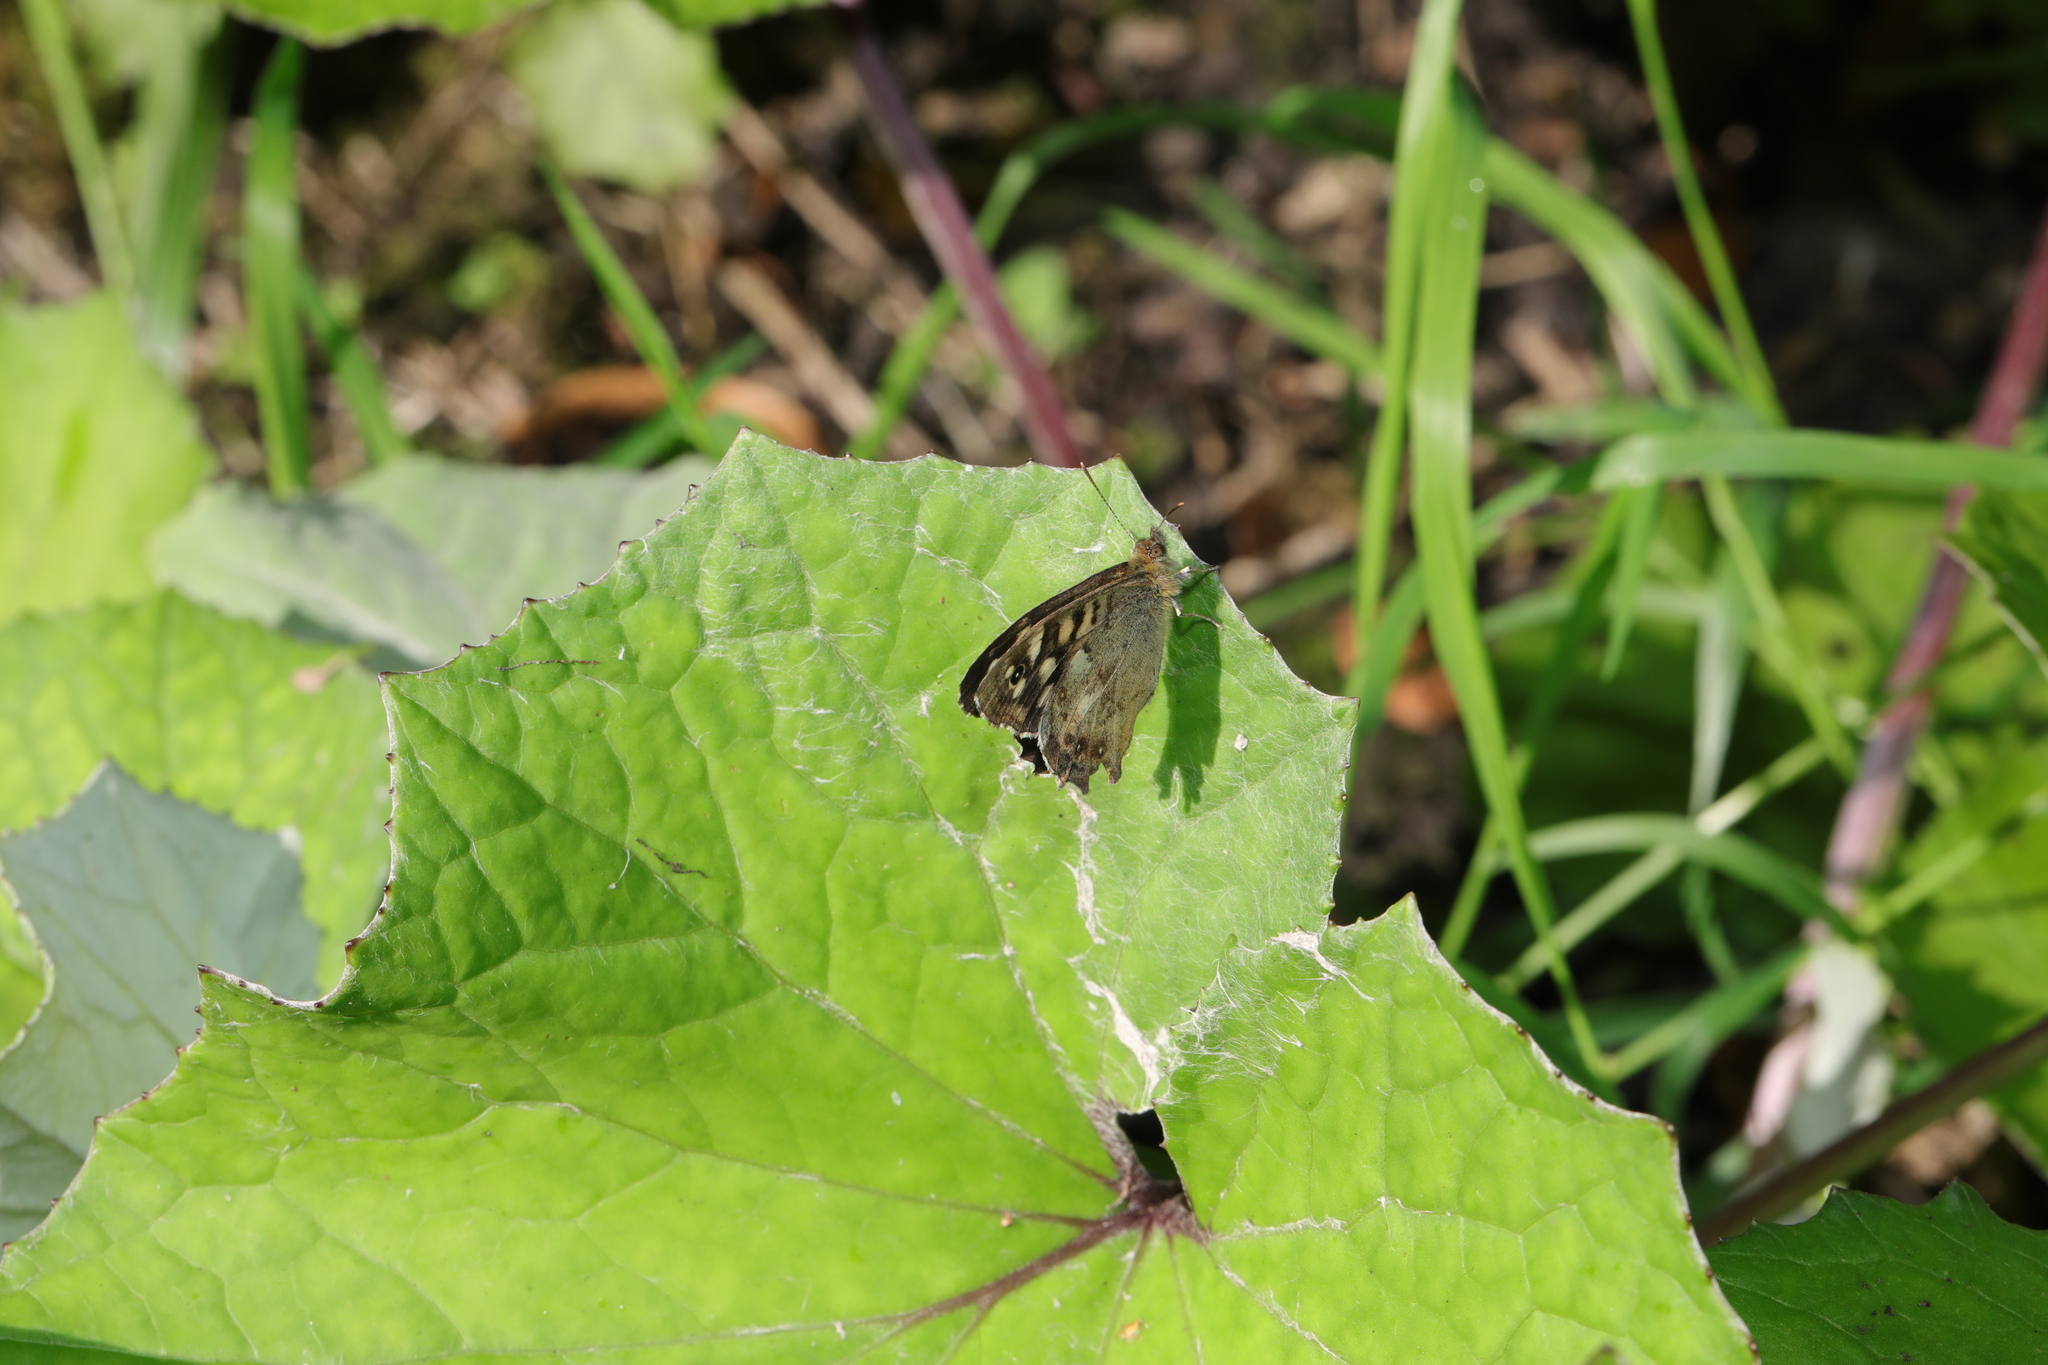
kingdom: Animalia
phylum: Arthropoda
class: Insecta
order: Lepidoptera
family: Nymphalidae
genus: Pararge
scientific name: Pararge aegeria
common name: Speckled wood
